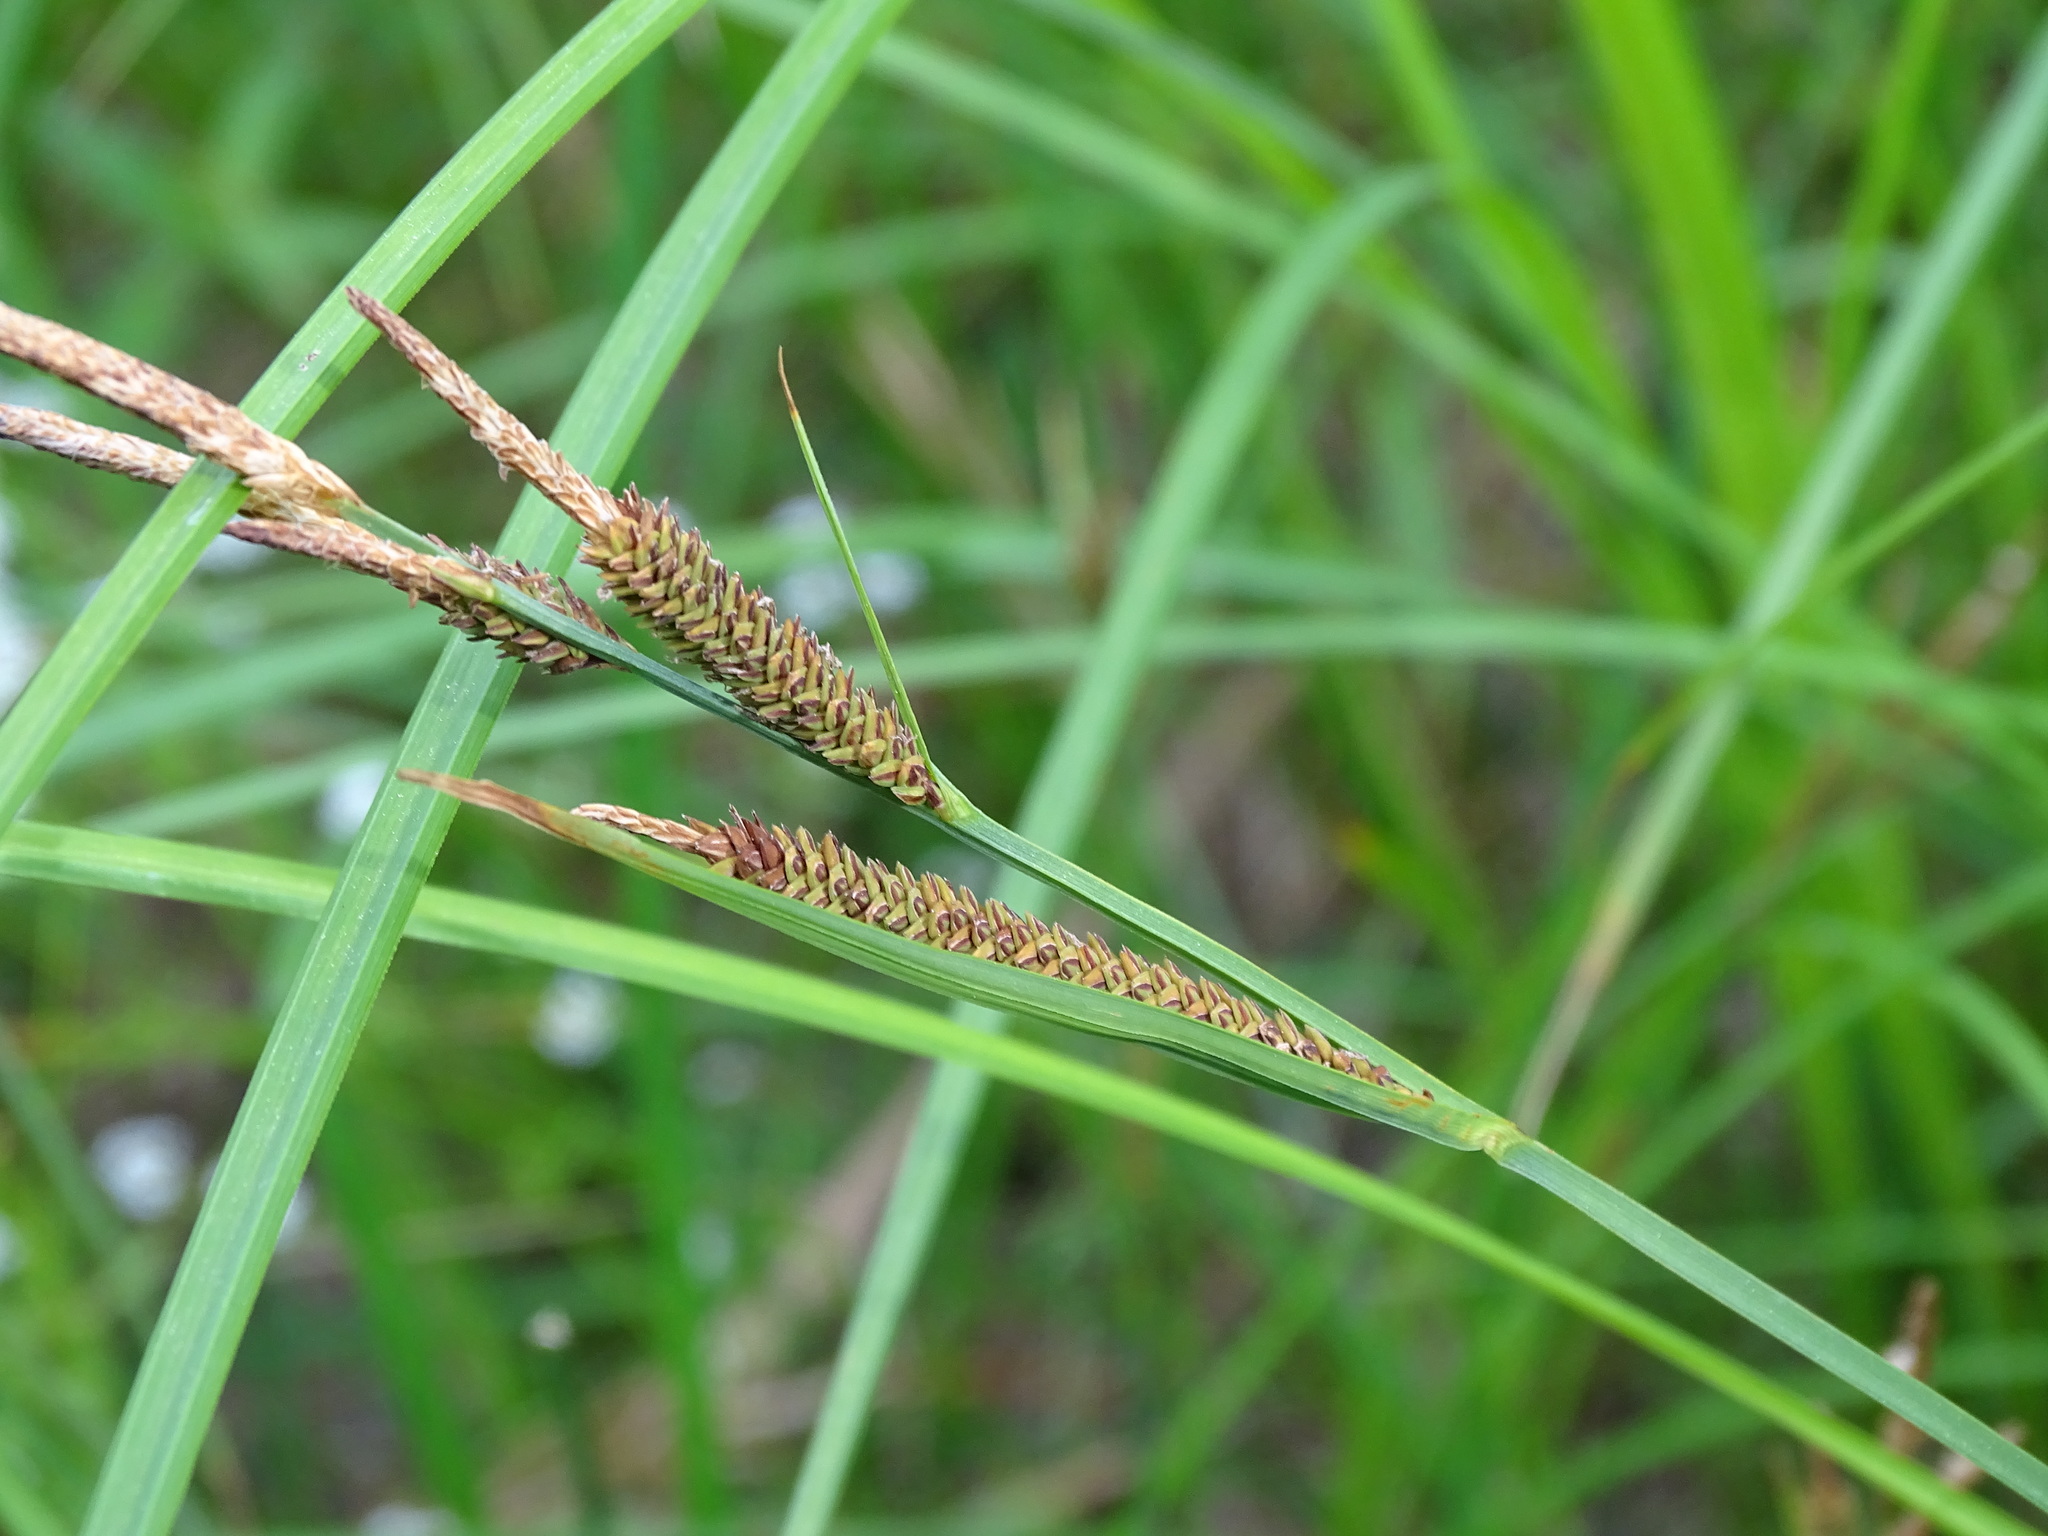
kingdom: Plantae
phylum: Tracheophyta
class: Liliopsida
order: Poales
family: Cyperaceae
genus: Carex
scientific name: Carex stricta
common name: Hummock sedge
